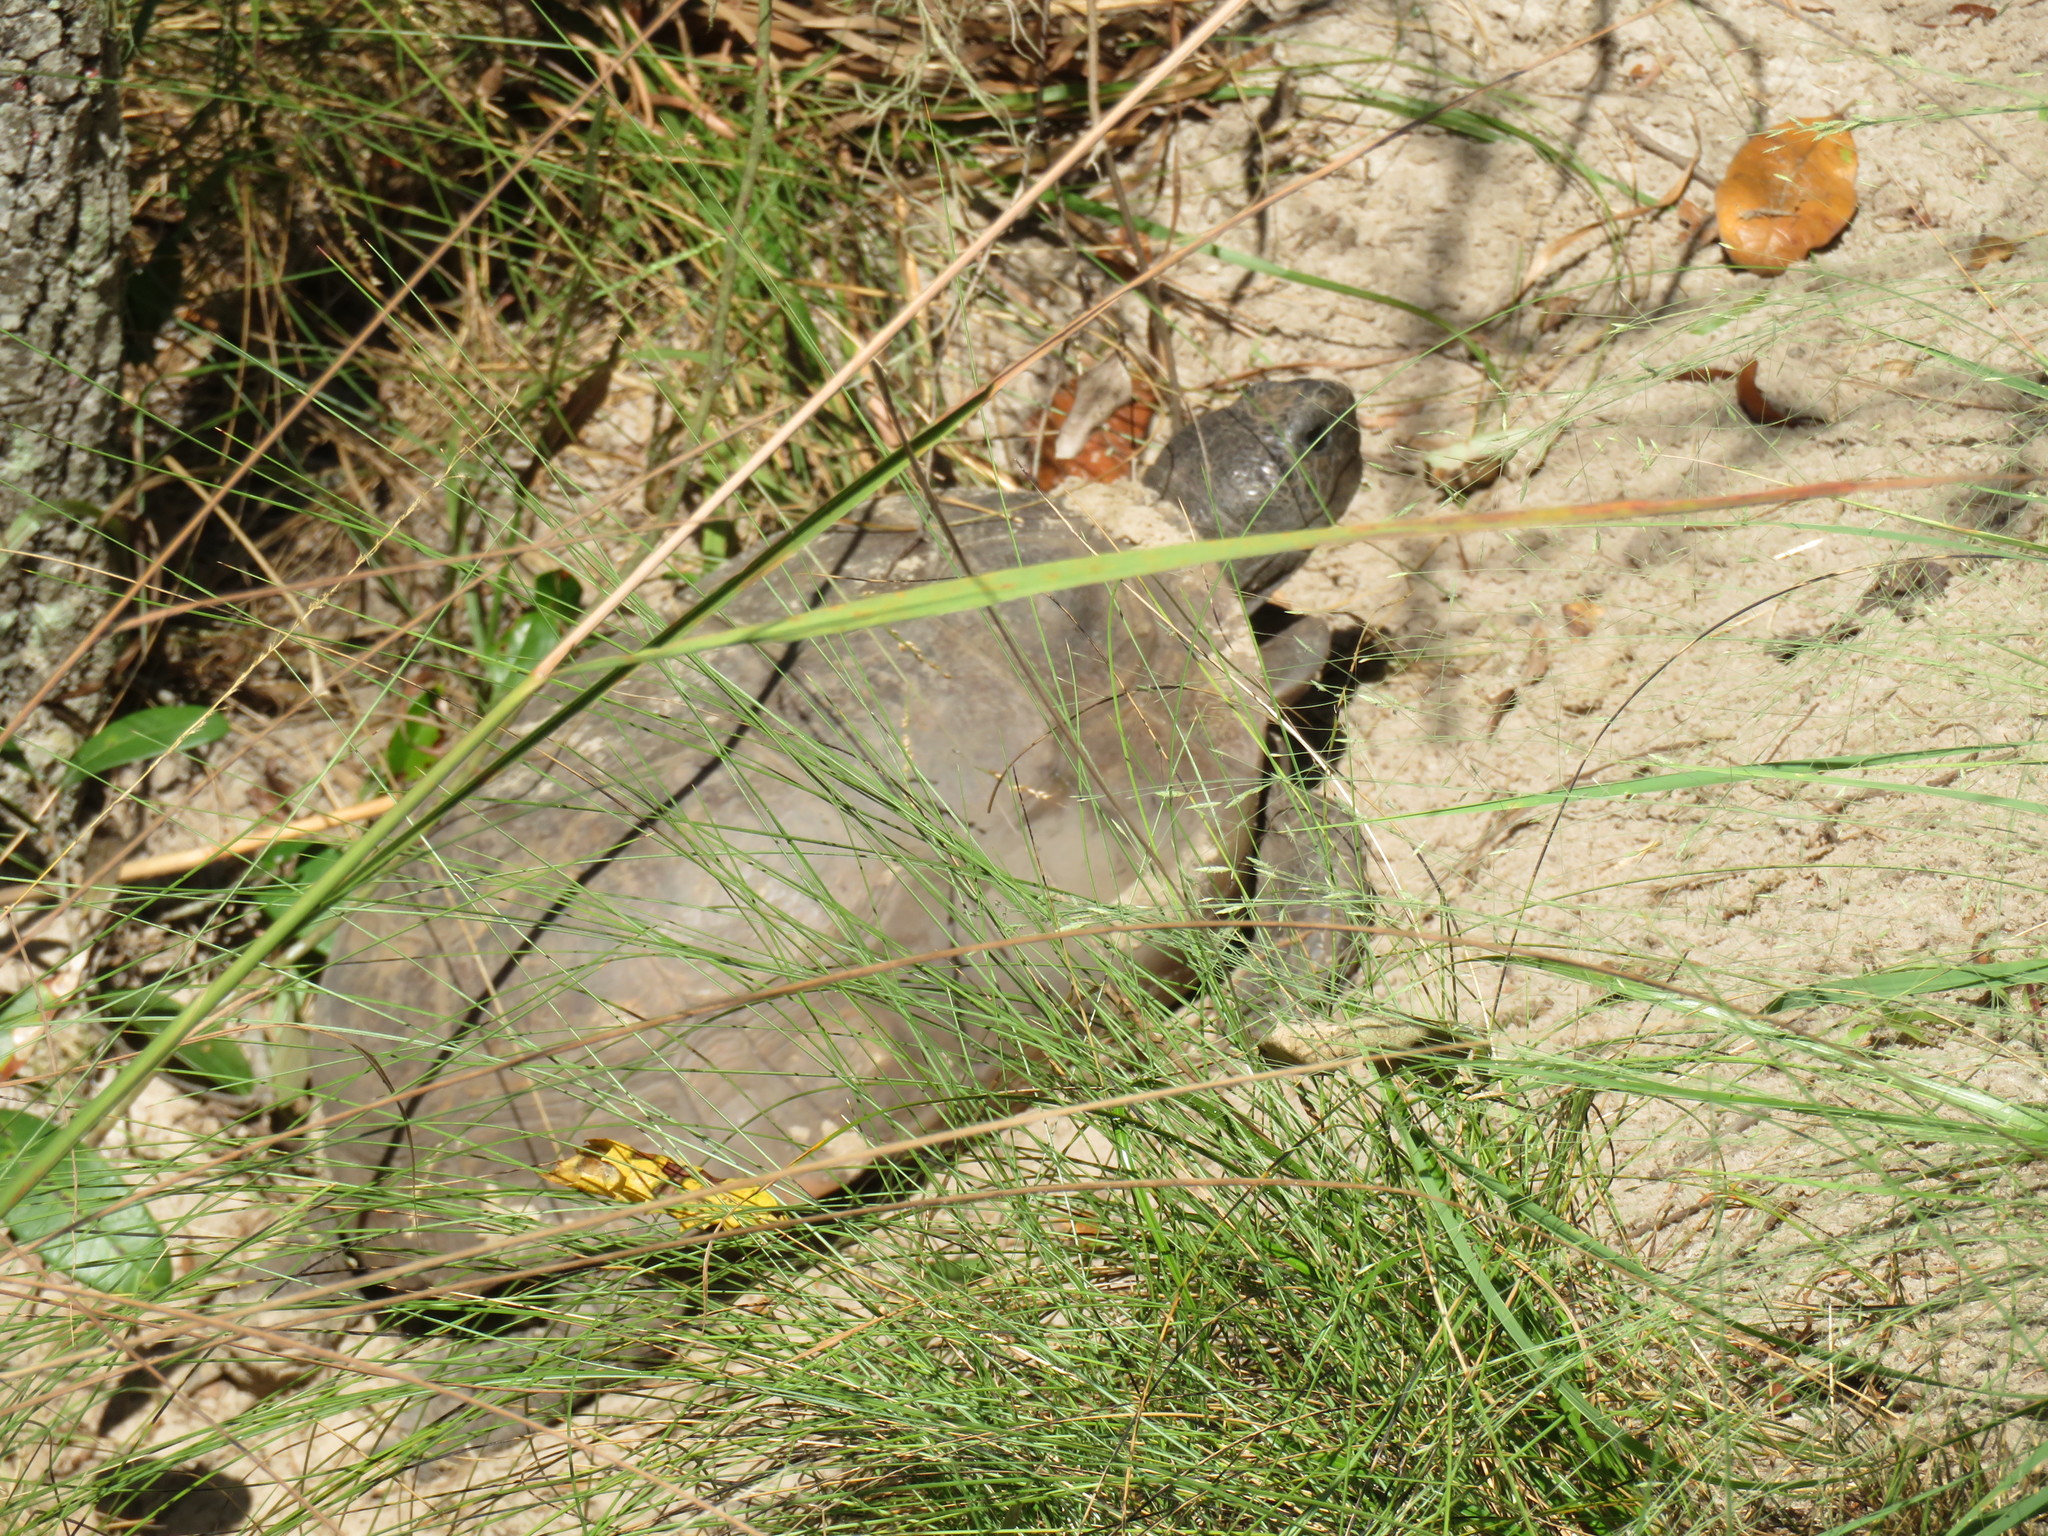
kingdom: Animalia
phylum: Chordata
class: Testudines
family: Testudinidae
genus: Gopherus
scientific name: Gopherus polyphemus
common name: Florida gopher tortoise
